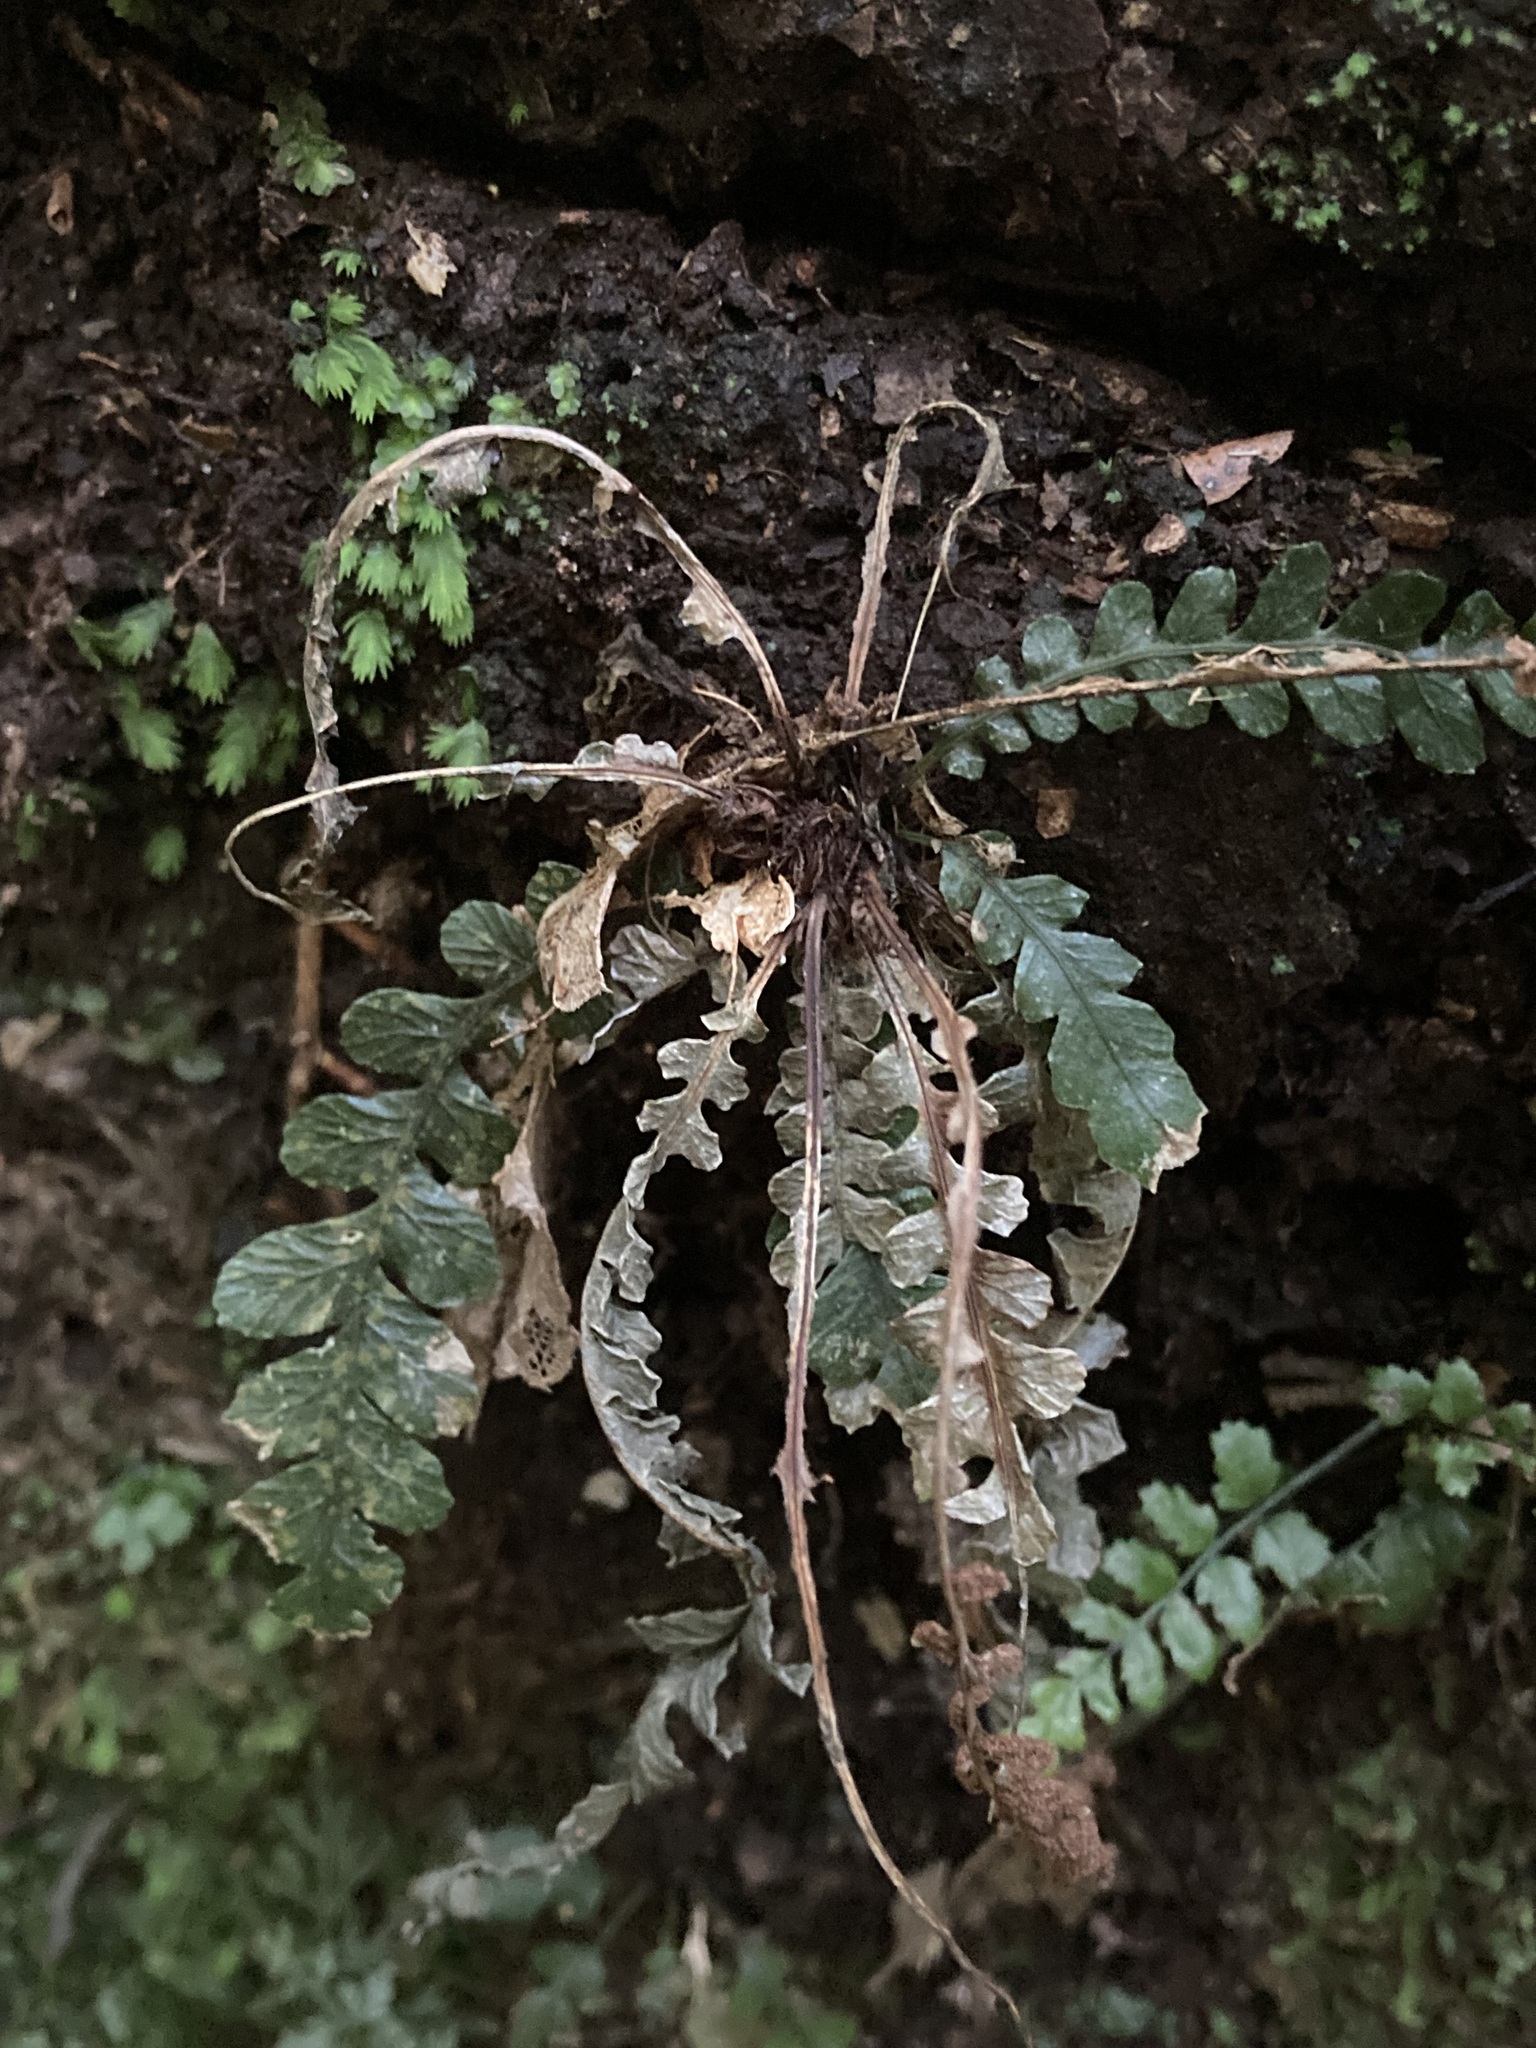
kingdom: Plantae
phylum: Tracheophyta
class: Polypodiopsida
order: Polypodiales
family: Blechnaceae
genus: Austroblechnum
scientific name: Austroblechnum membranaceum
